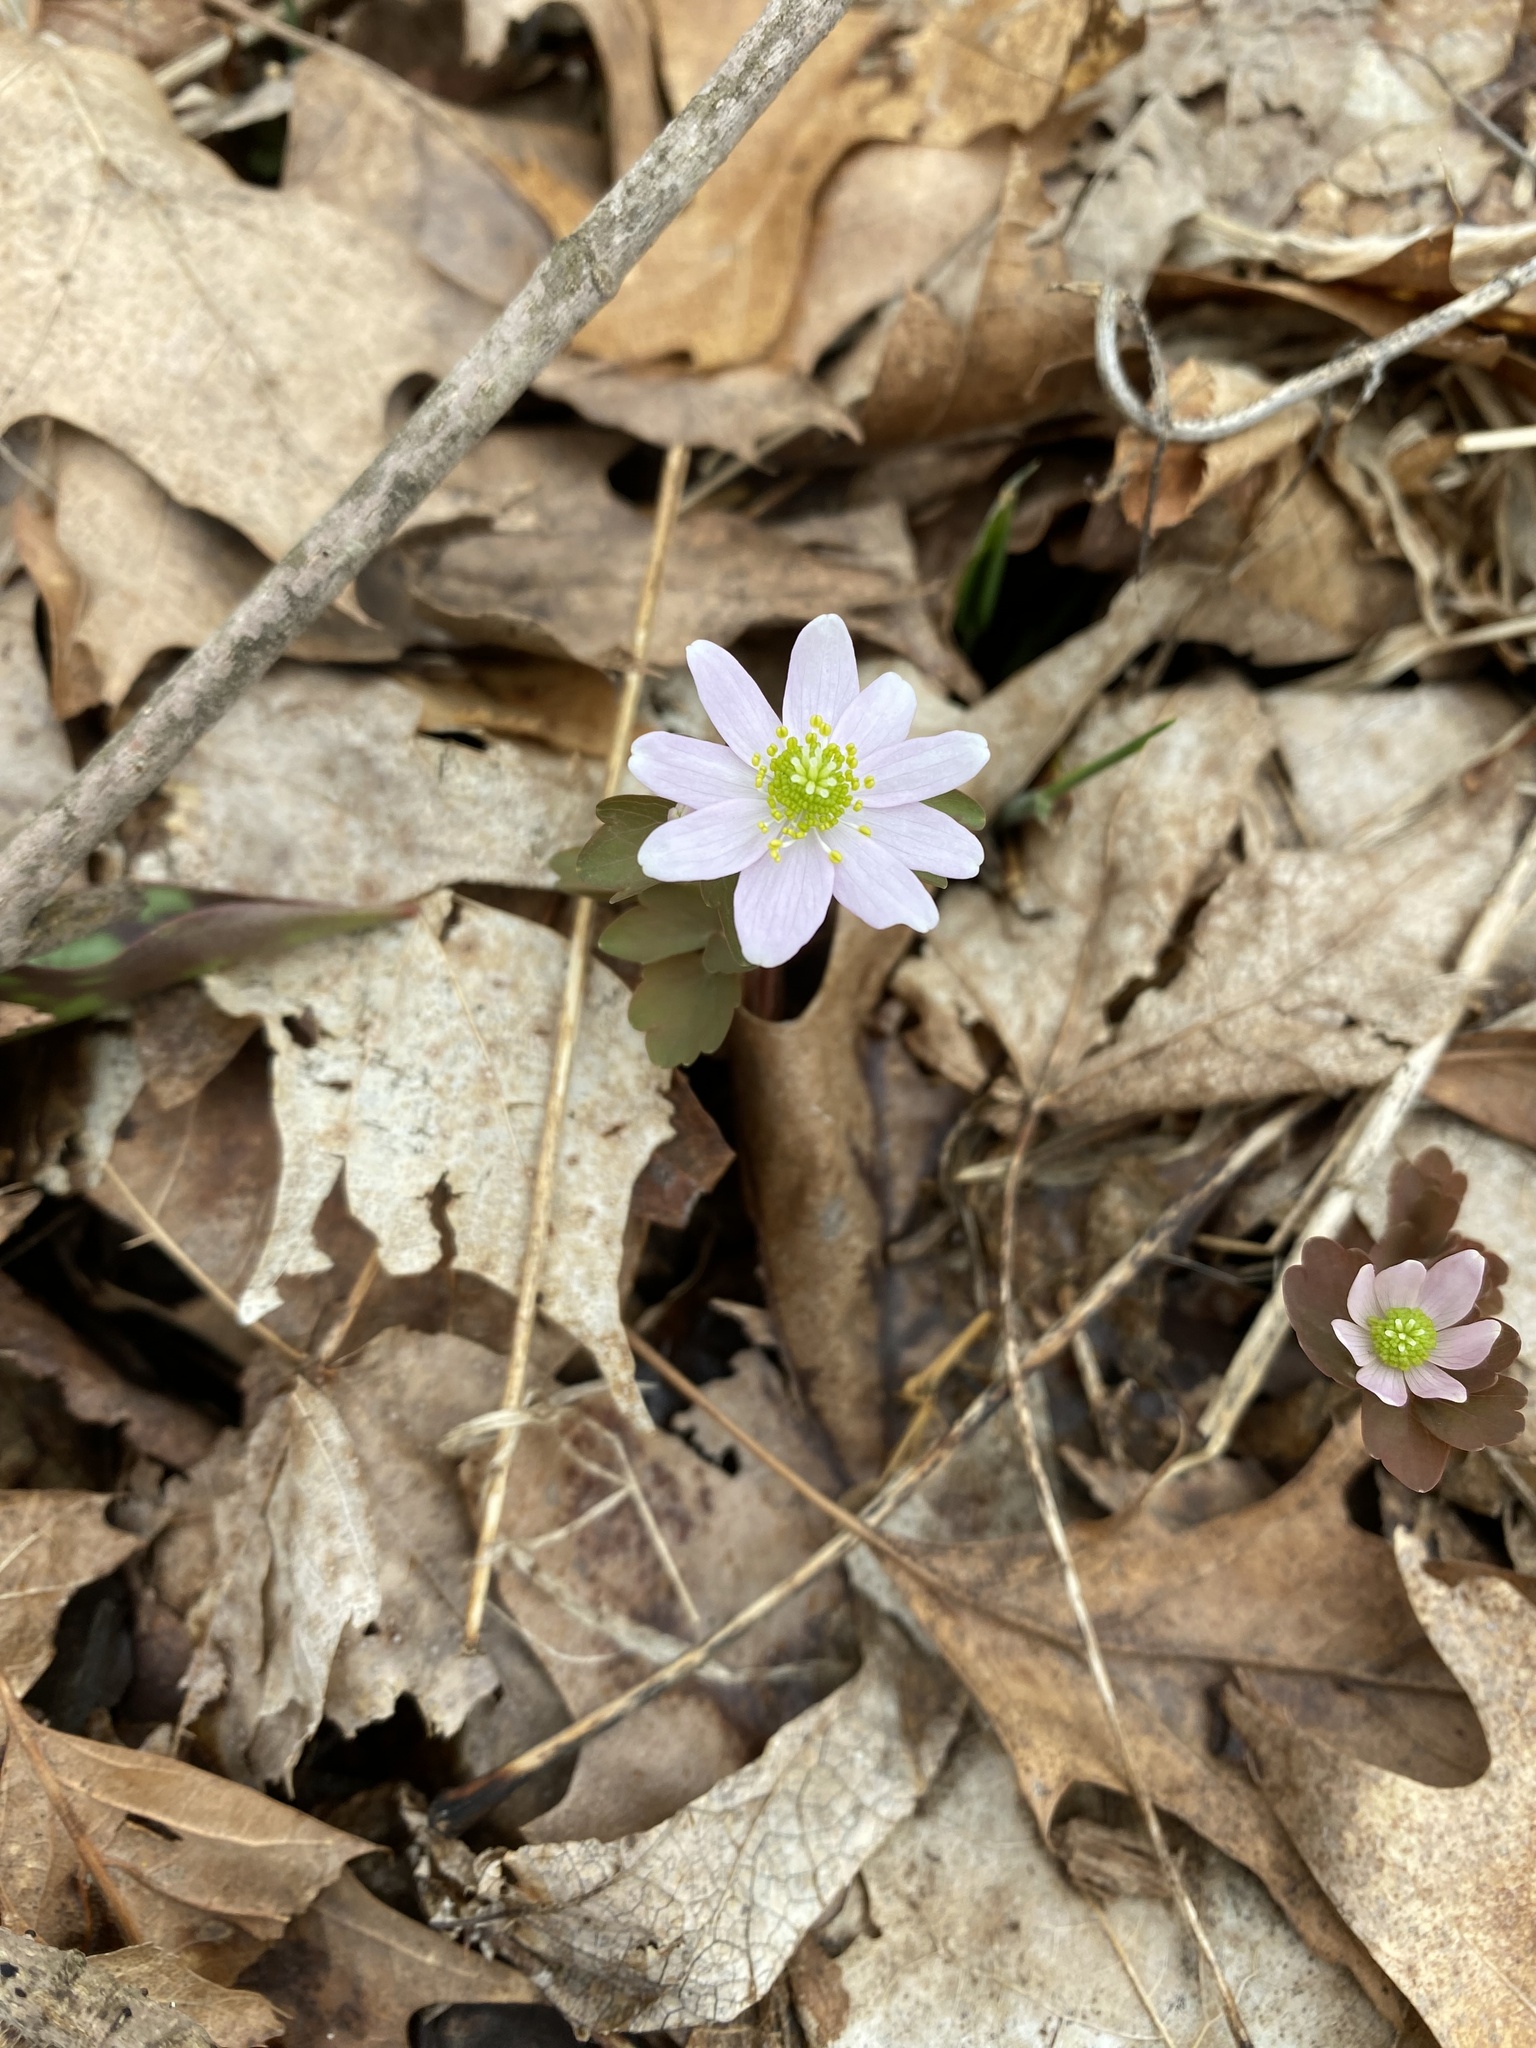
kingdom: Plantae
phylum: Tracheophyta
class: Magnoliopsida
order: Ranunculales
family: Ranunculaceae
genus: Thalictrum
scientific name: Thalictrum thalictroides
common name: Rue-anemone
